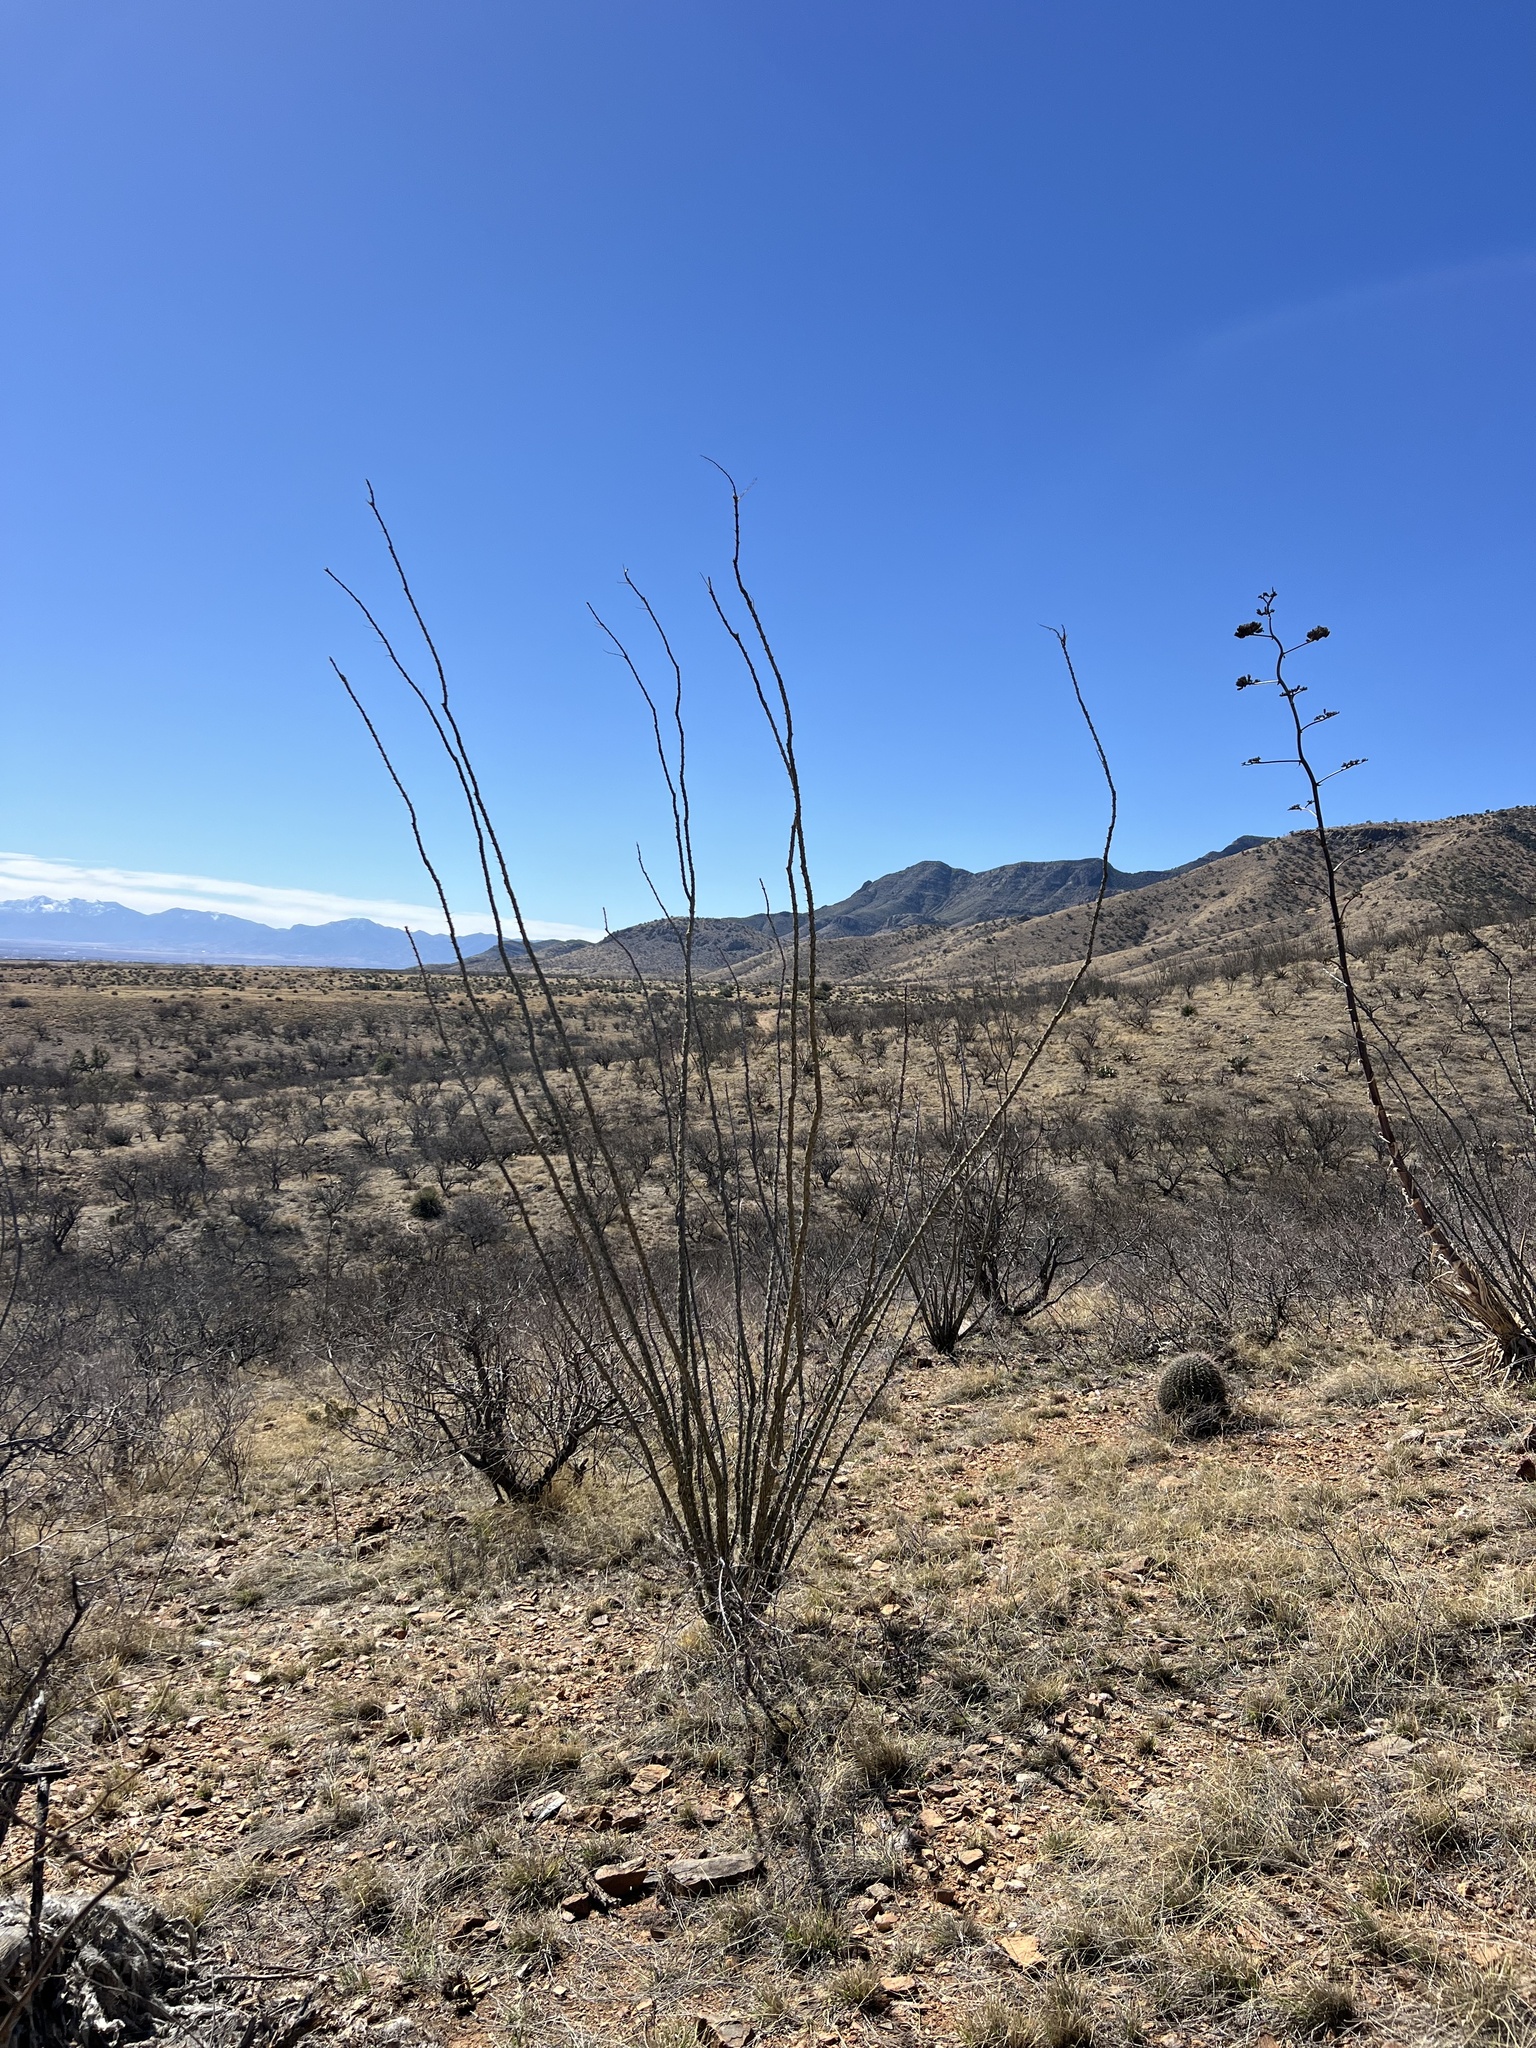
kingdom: Plantae
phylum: Tracheophyta
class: Magnoliopsida
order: Ericales
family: Fouquieriaceae
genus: Fouquieria
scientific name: Fouquieria splendens
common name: Vine-cactus
